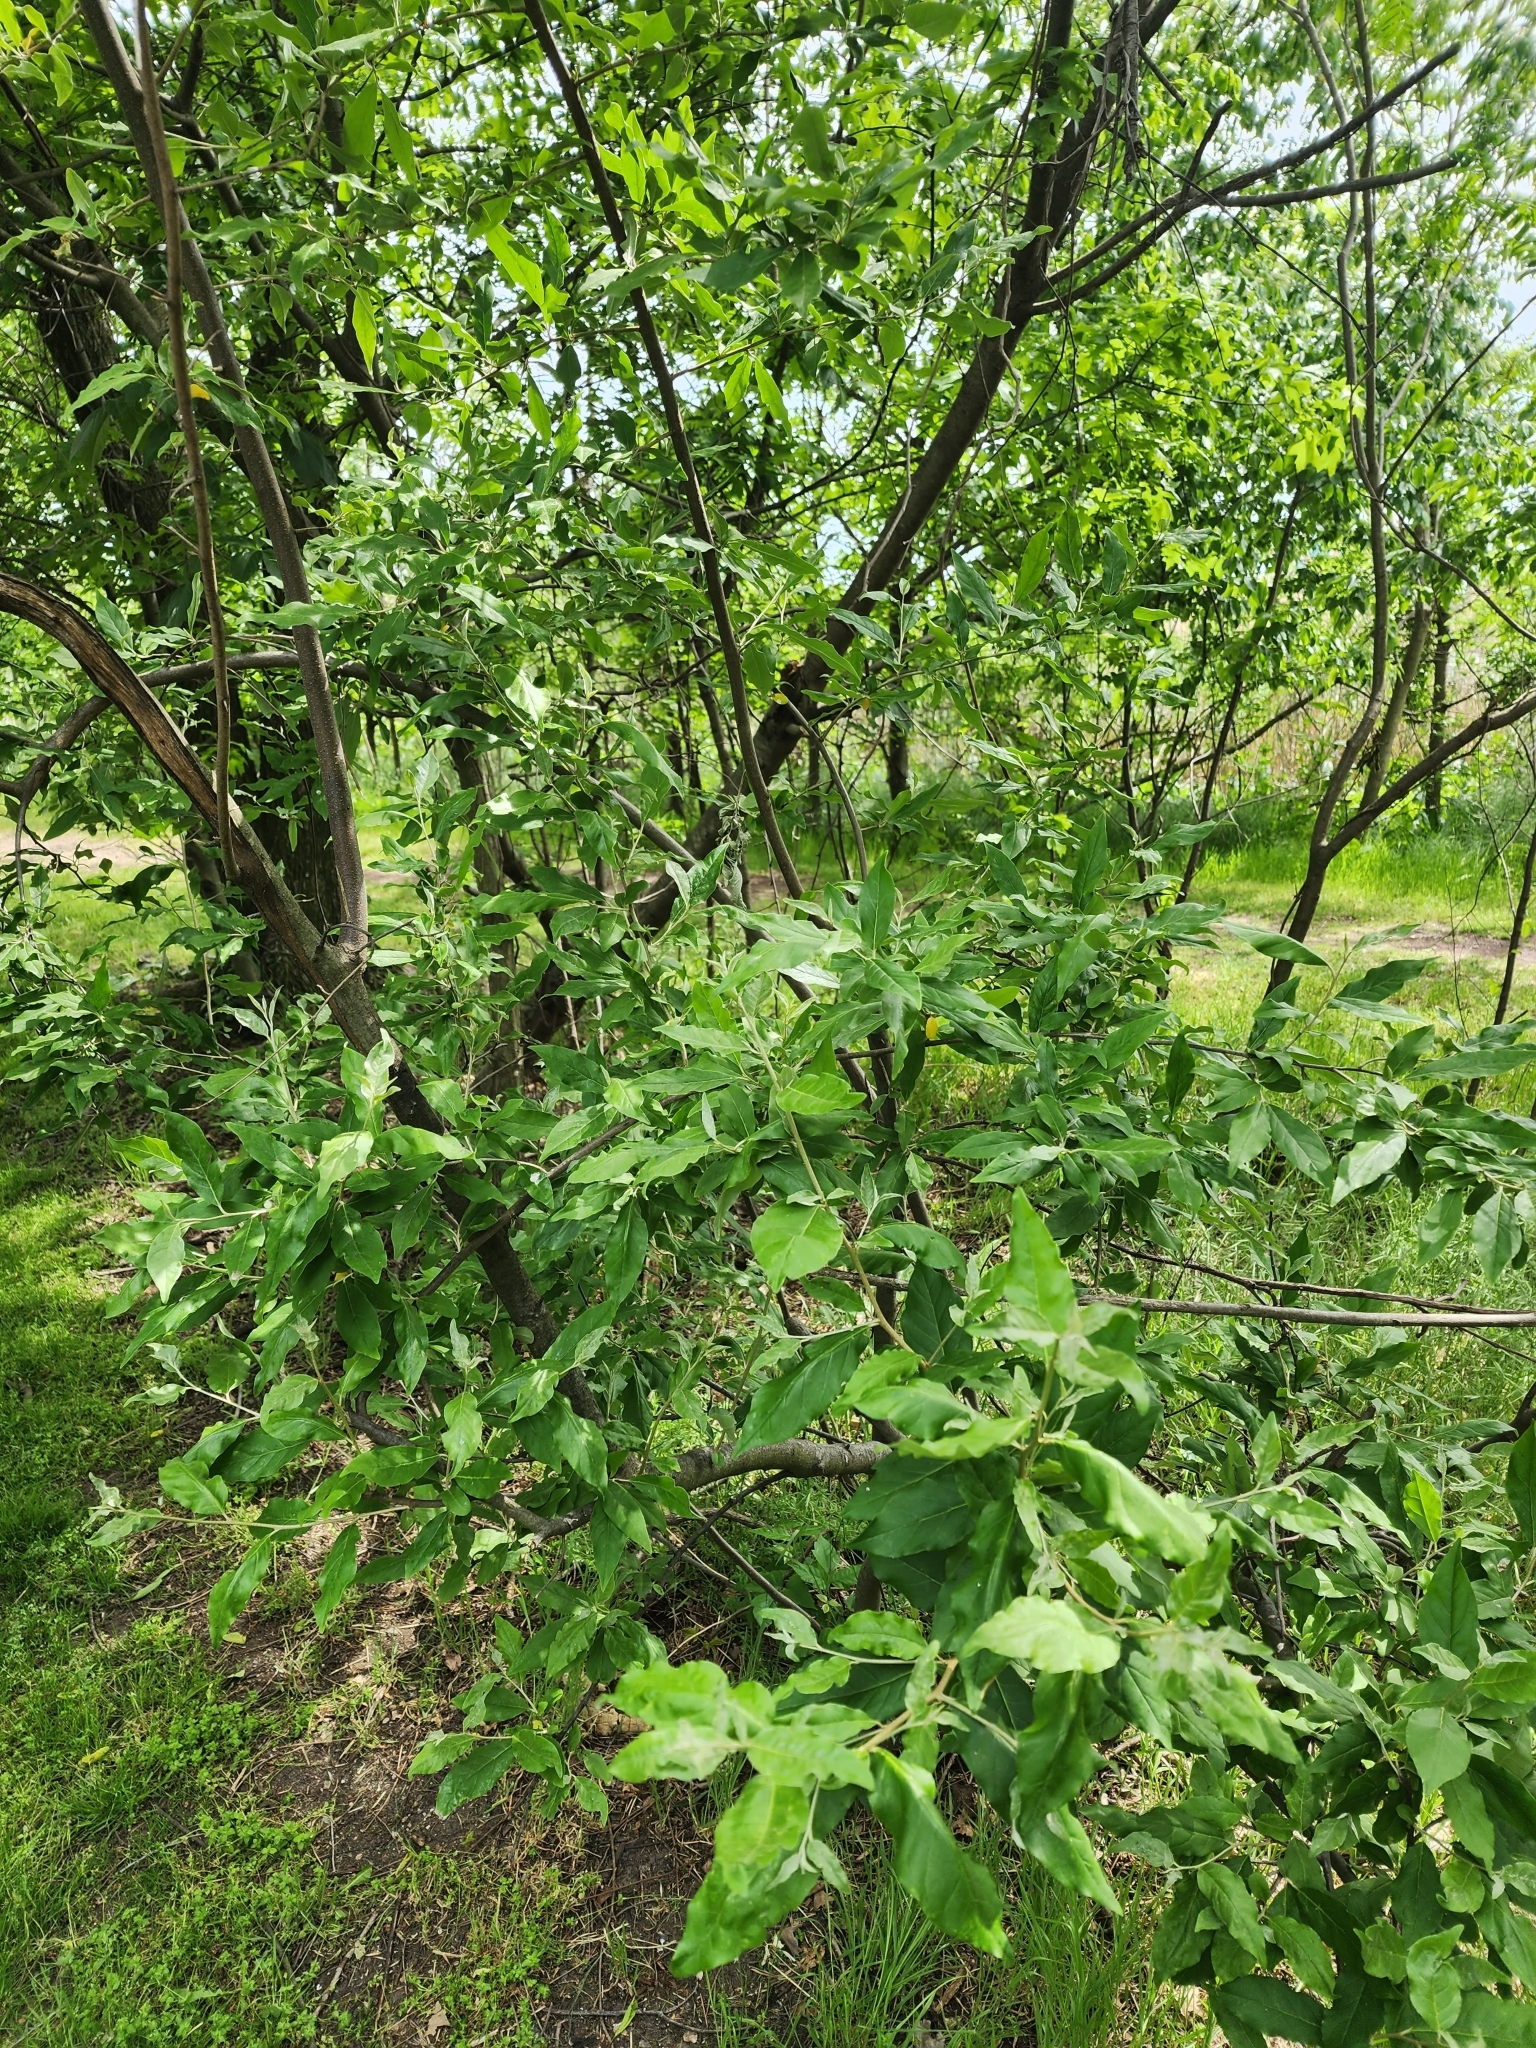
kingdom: Plantae
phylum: Tracheophyta
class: Magnoliopsida
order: Rosales
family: Elaeagnaceae
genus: Elaeagnus
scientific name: Elaeagnus umbellata
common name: Autumn olive
